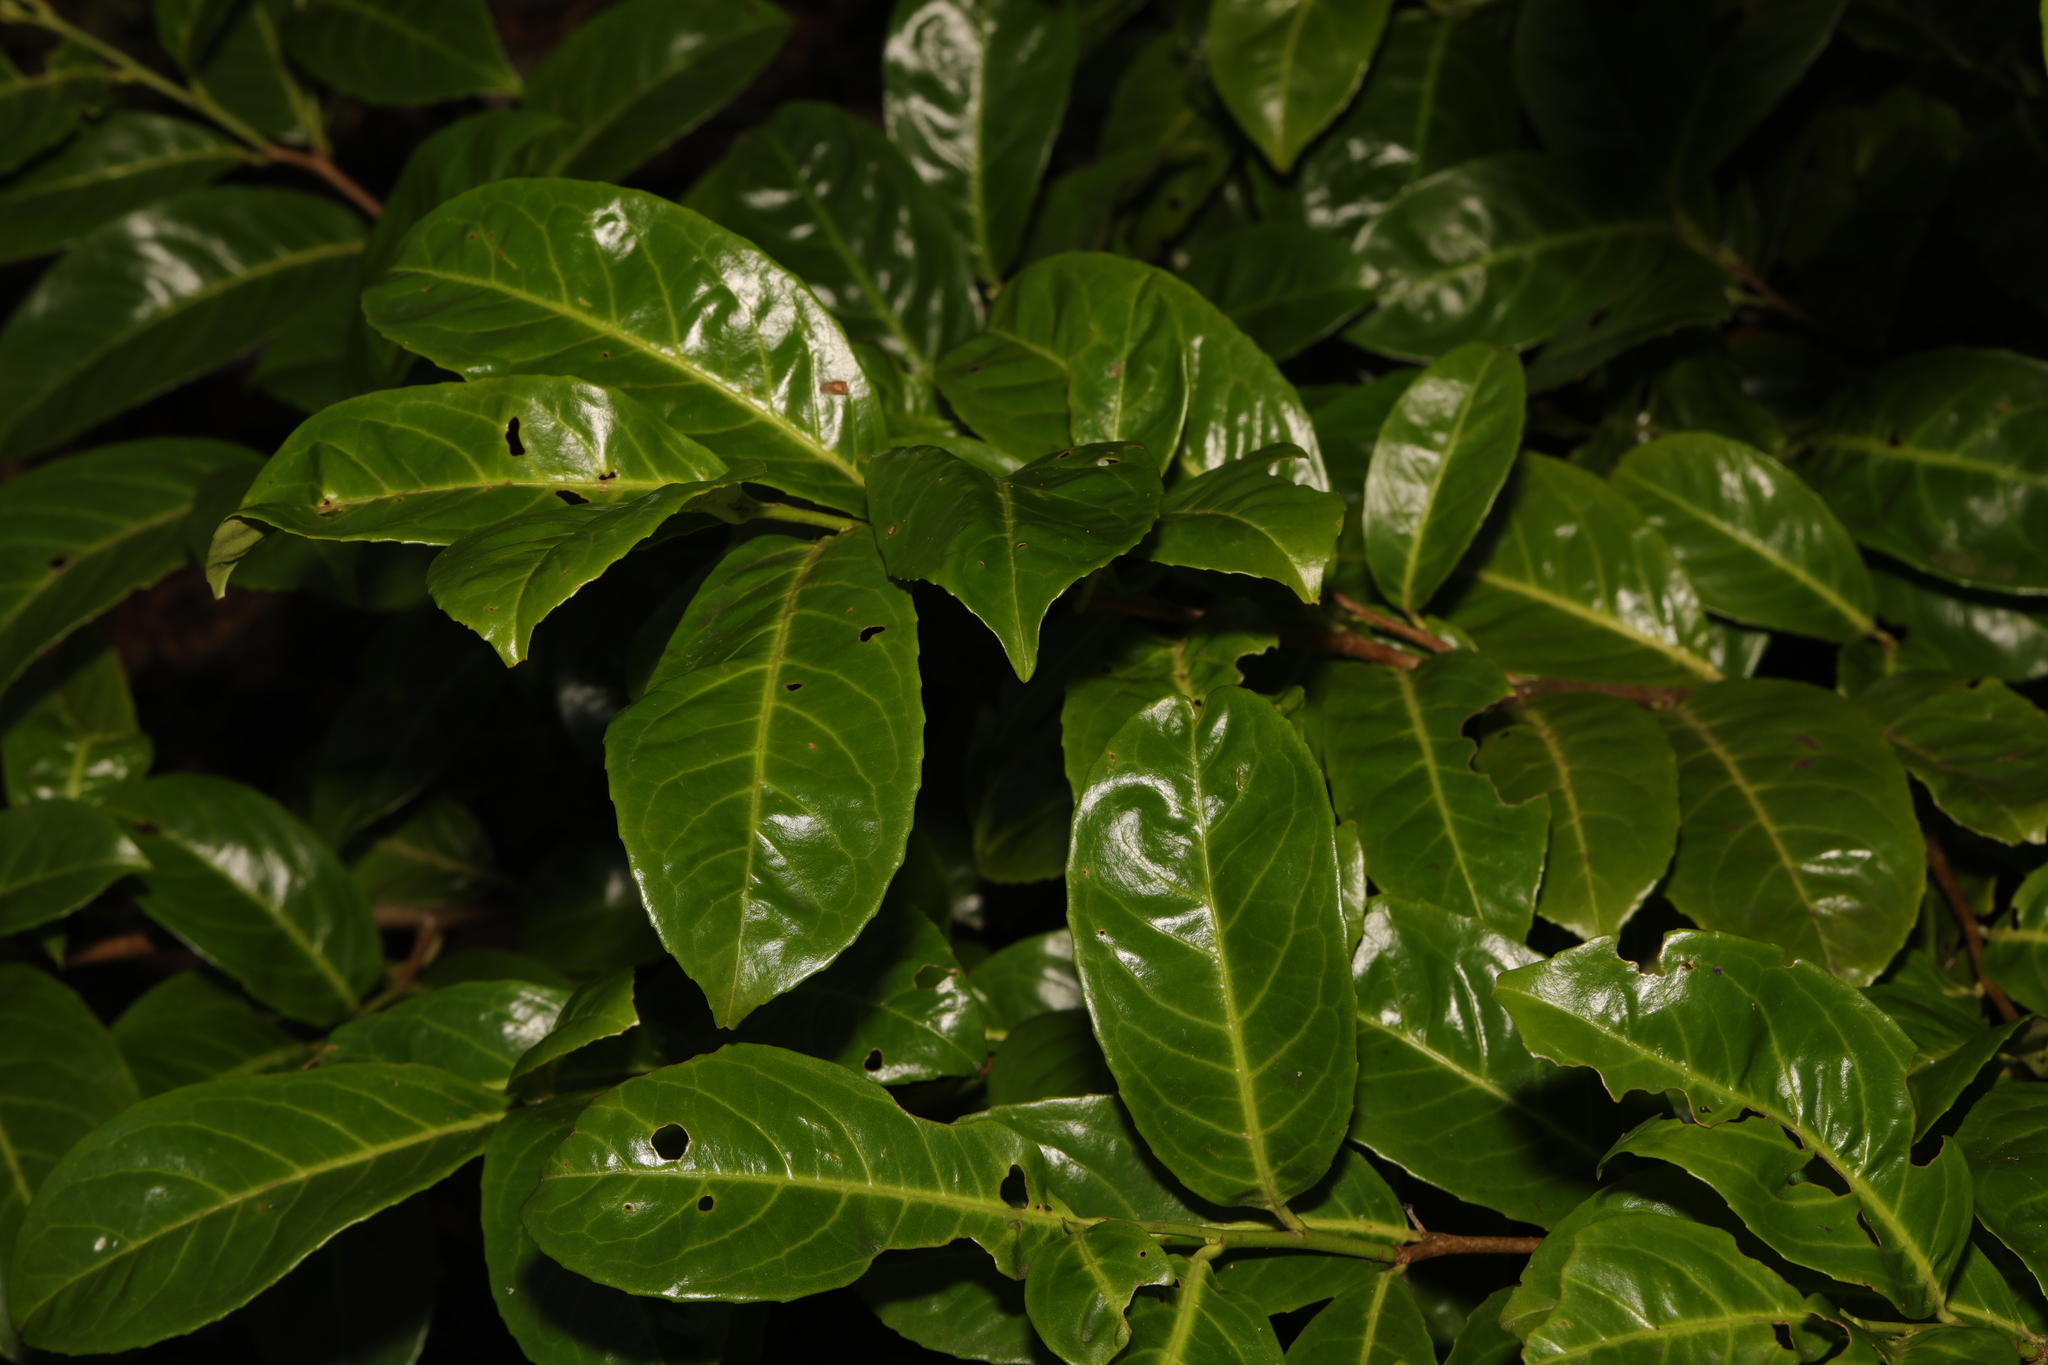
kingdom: Plantae
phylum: Tracheophyta
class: Magnoliopsida
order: Rosales
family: Rosaceae
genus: Prunus
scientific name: Prunus laurocerasus
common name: Cherry laurel
